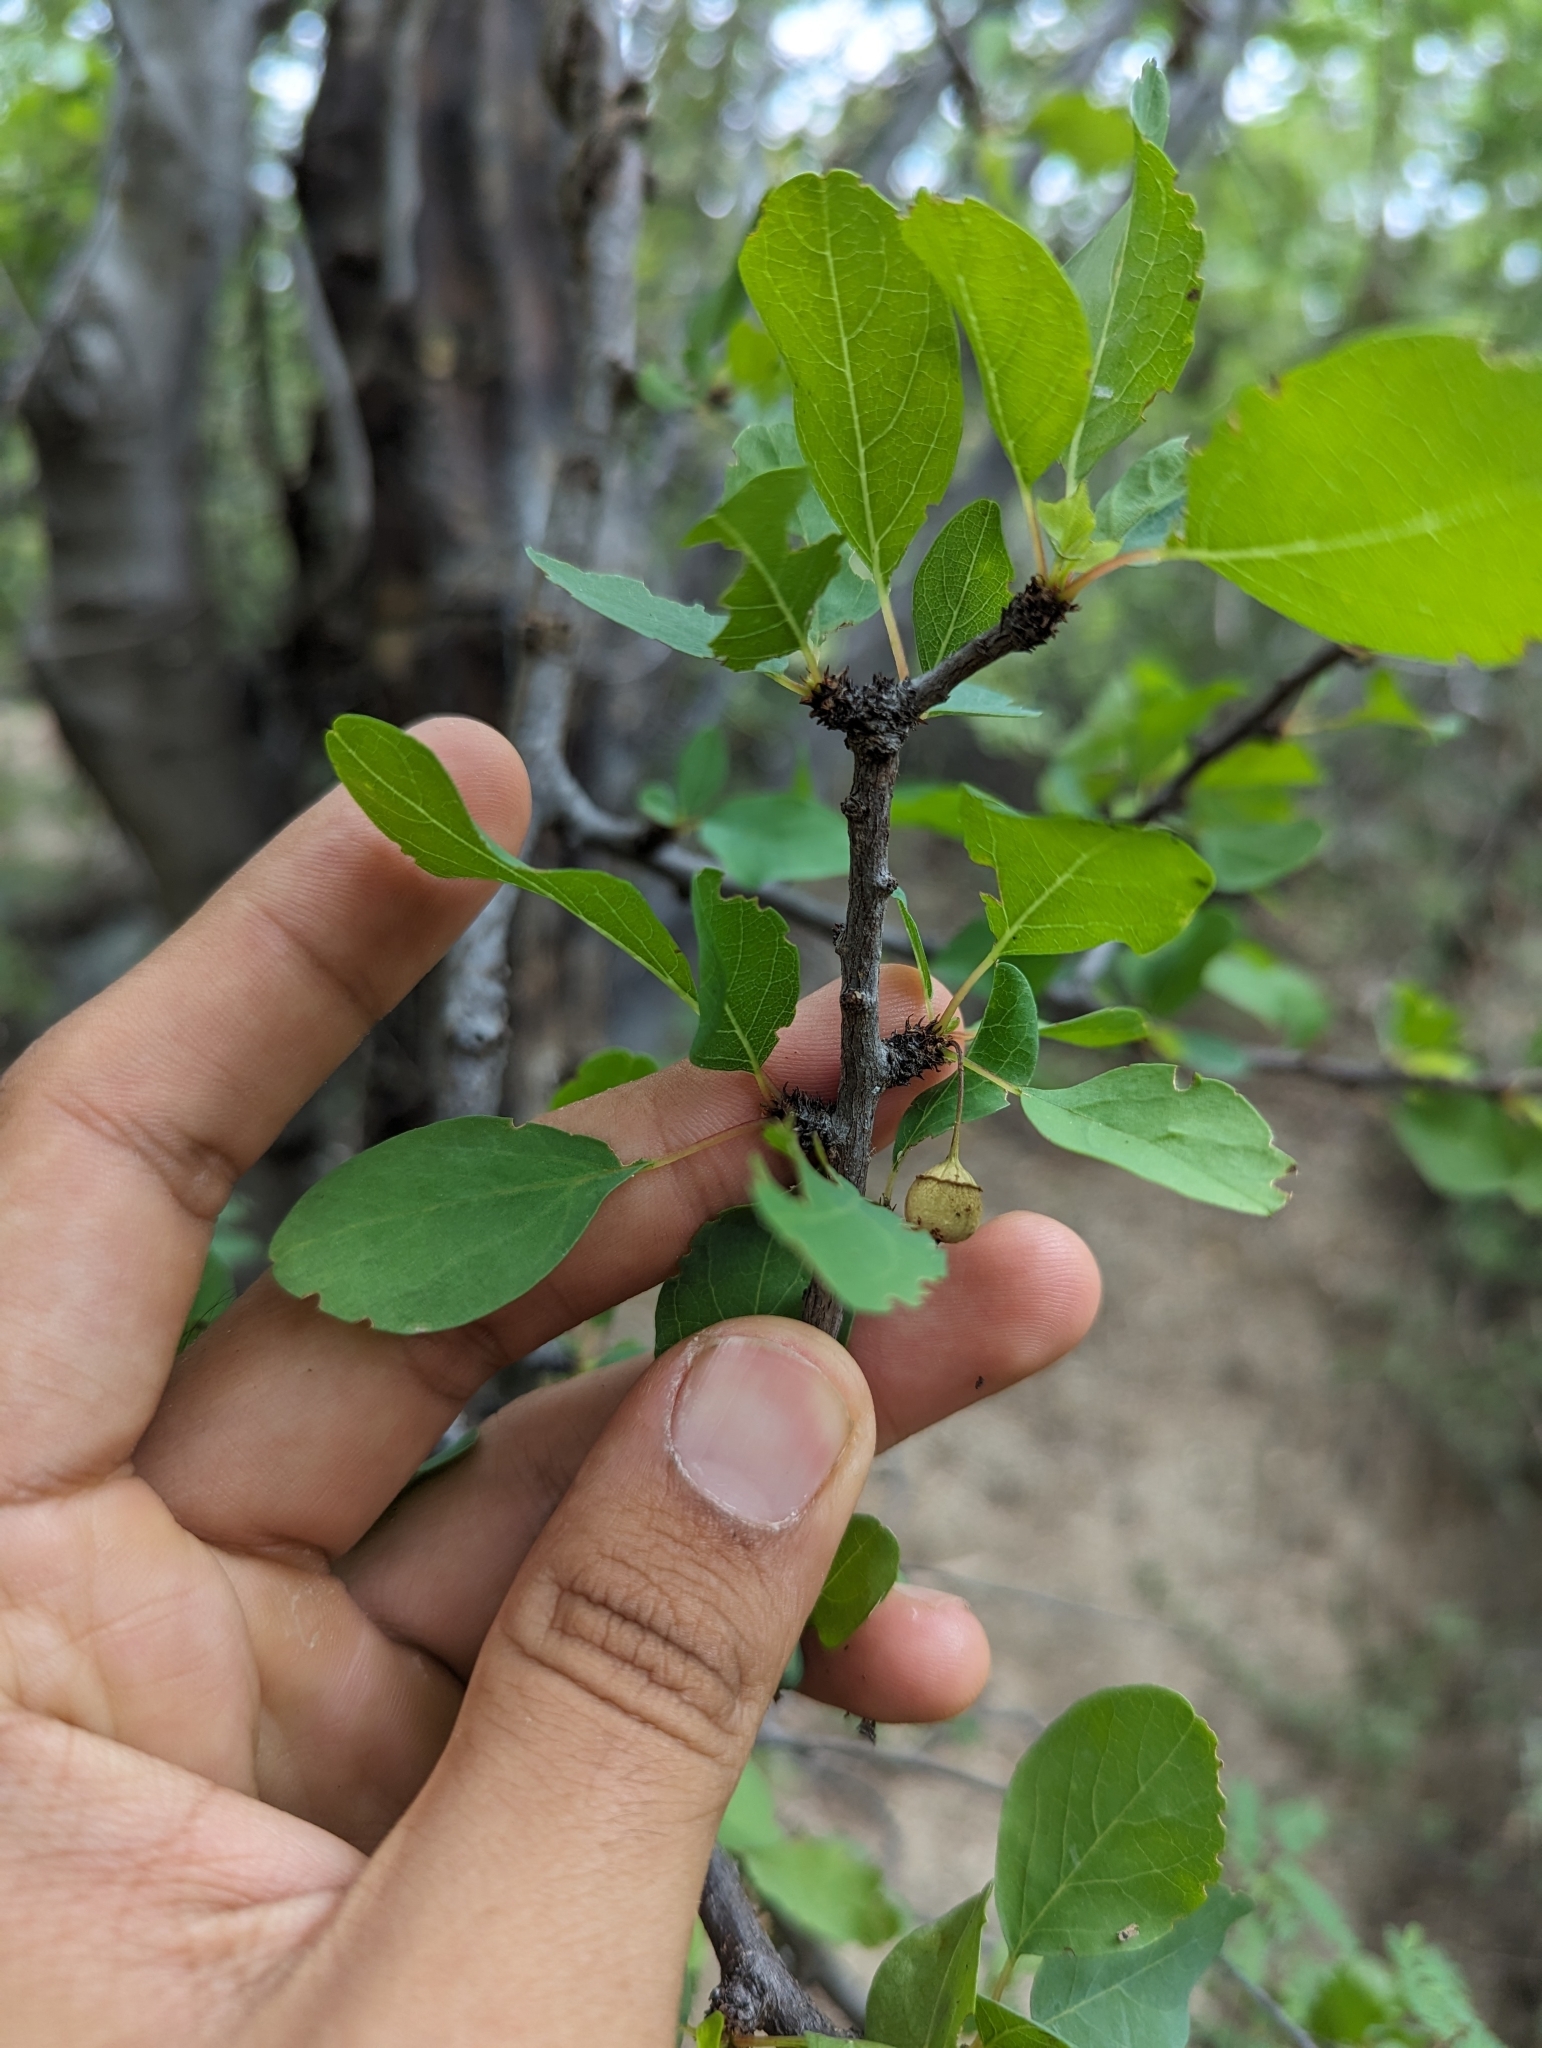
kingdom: Plantae
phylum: Tracheophyta
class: Magnoliopsida
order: Rosales
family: Rhamnaceae
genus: Colubrina
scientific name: Colubrina viridis
